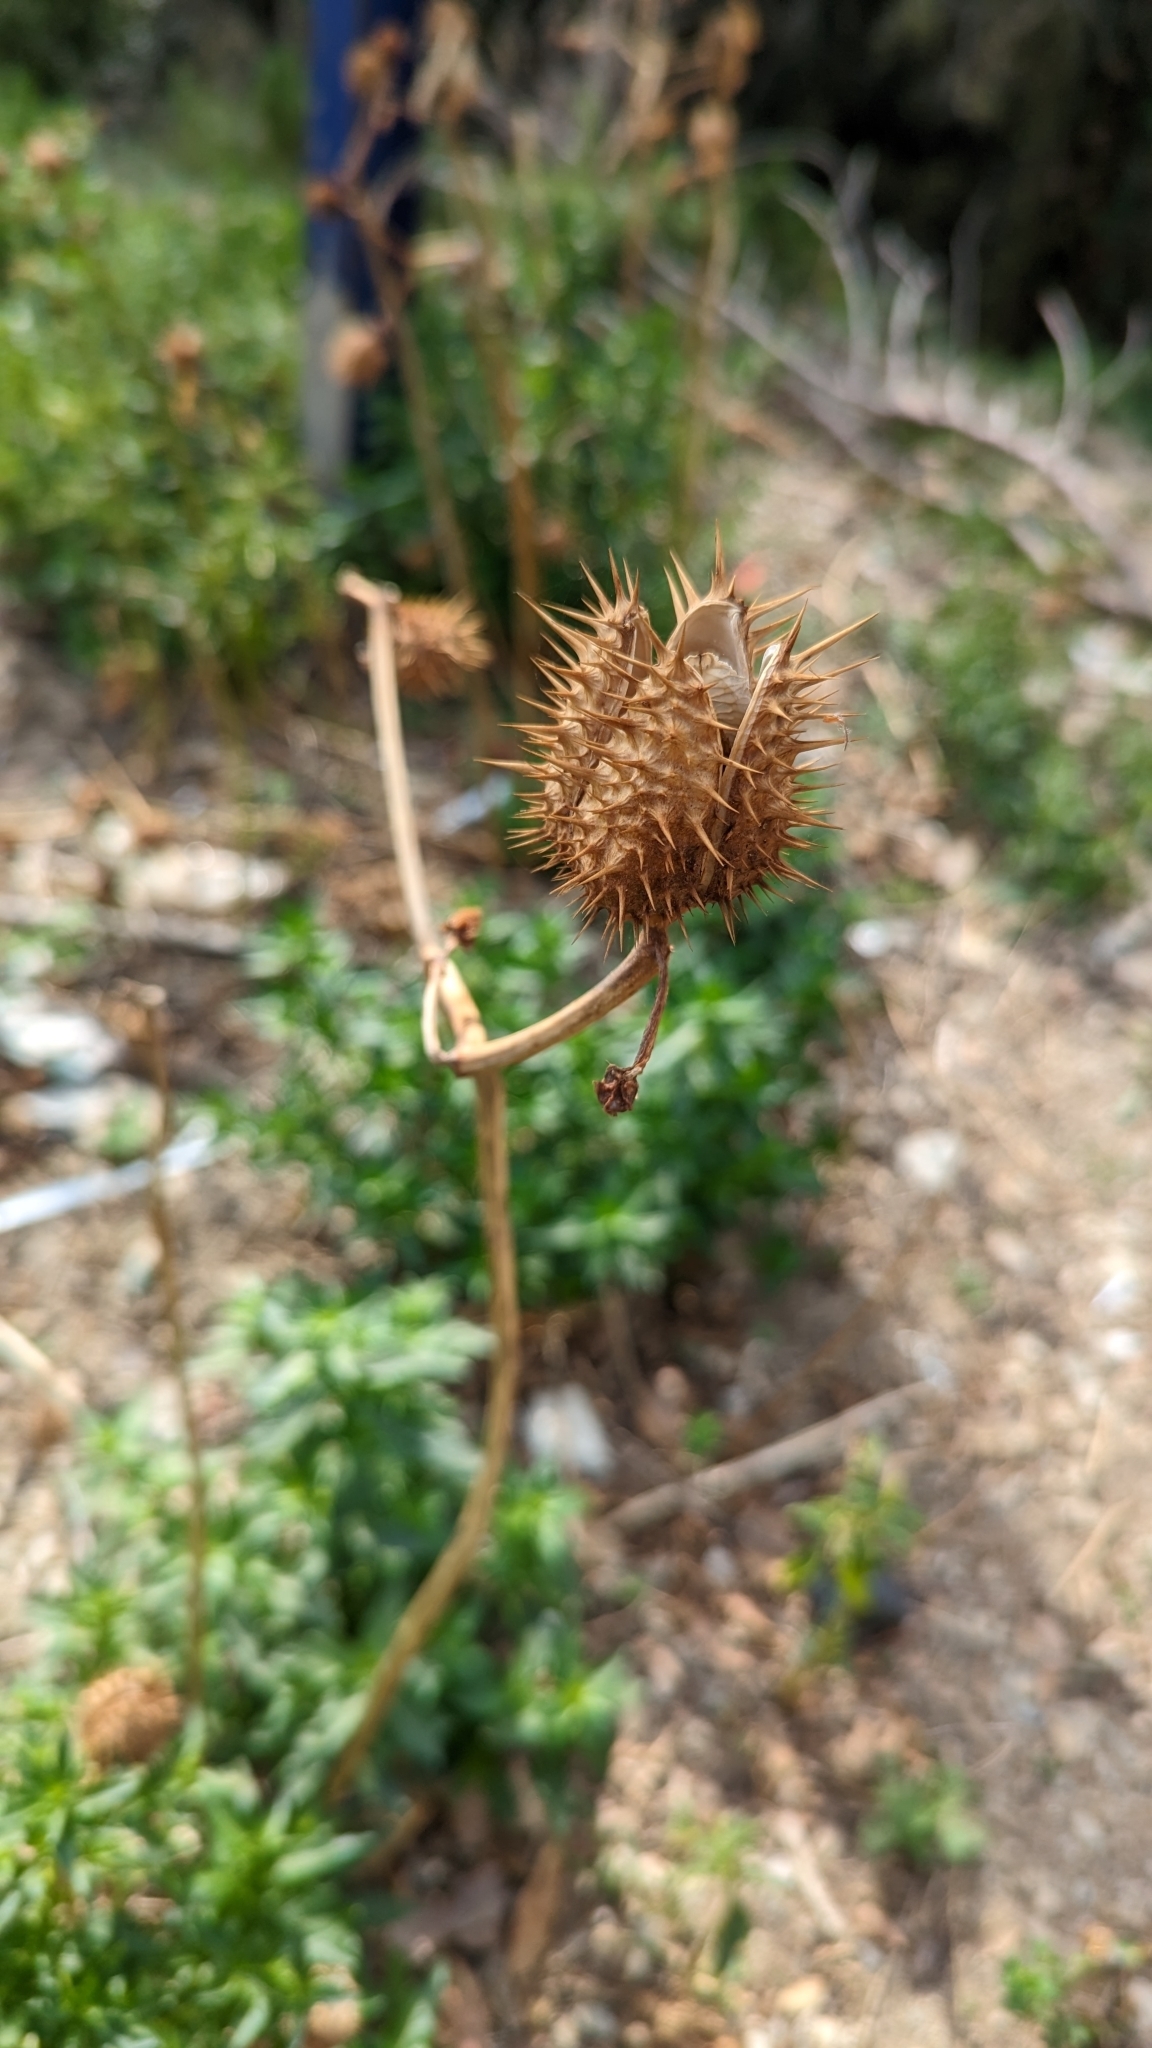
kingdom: Plantae
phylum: Tracheophyta
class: Magnoliopsida
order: Solanales
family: Solanaceae
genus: Datura
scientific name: Datura stramonium
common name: Thorn-apple
